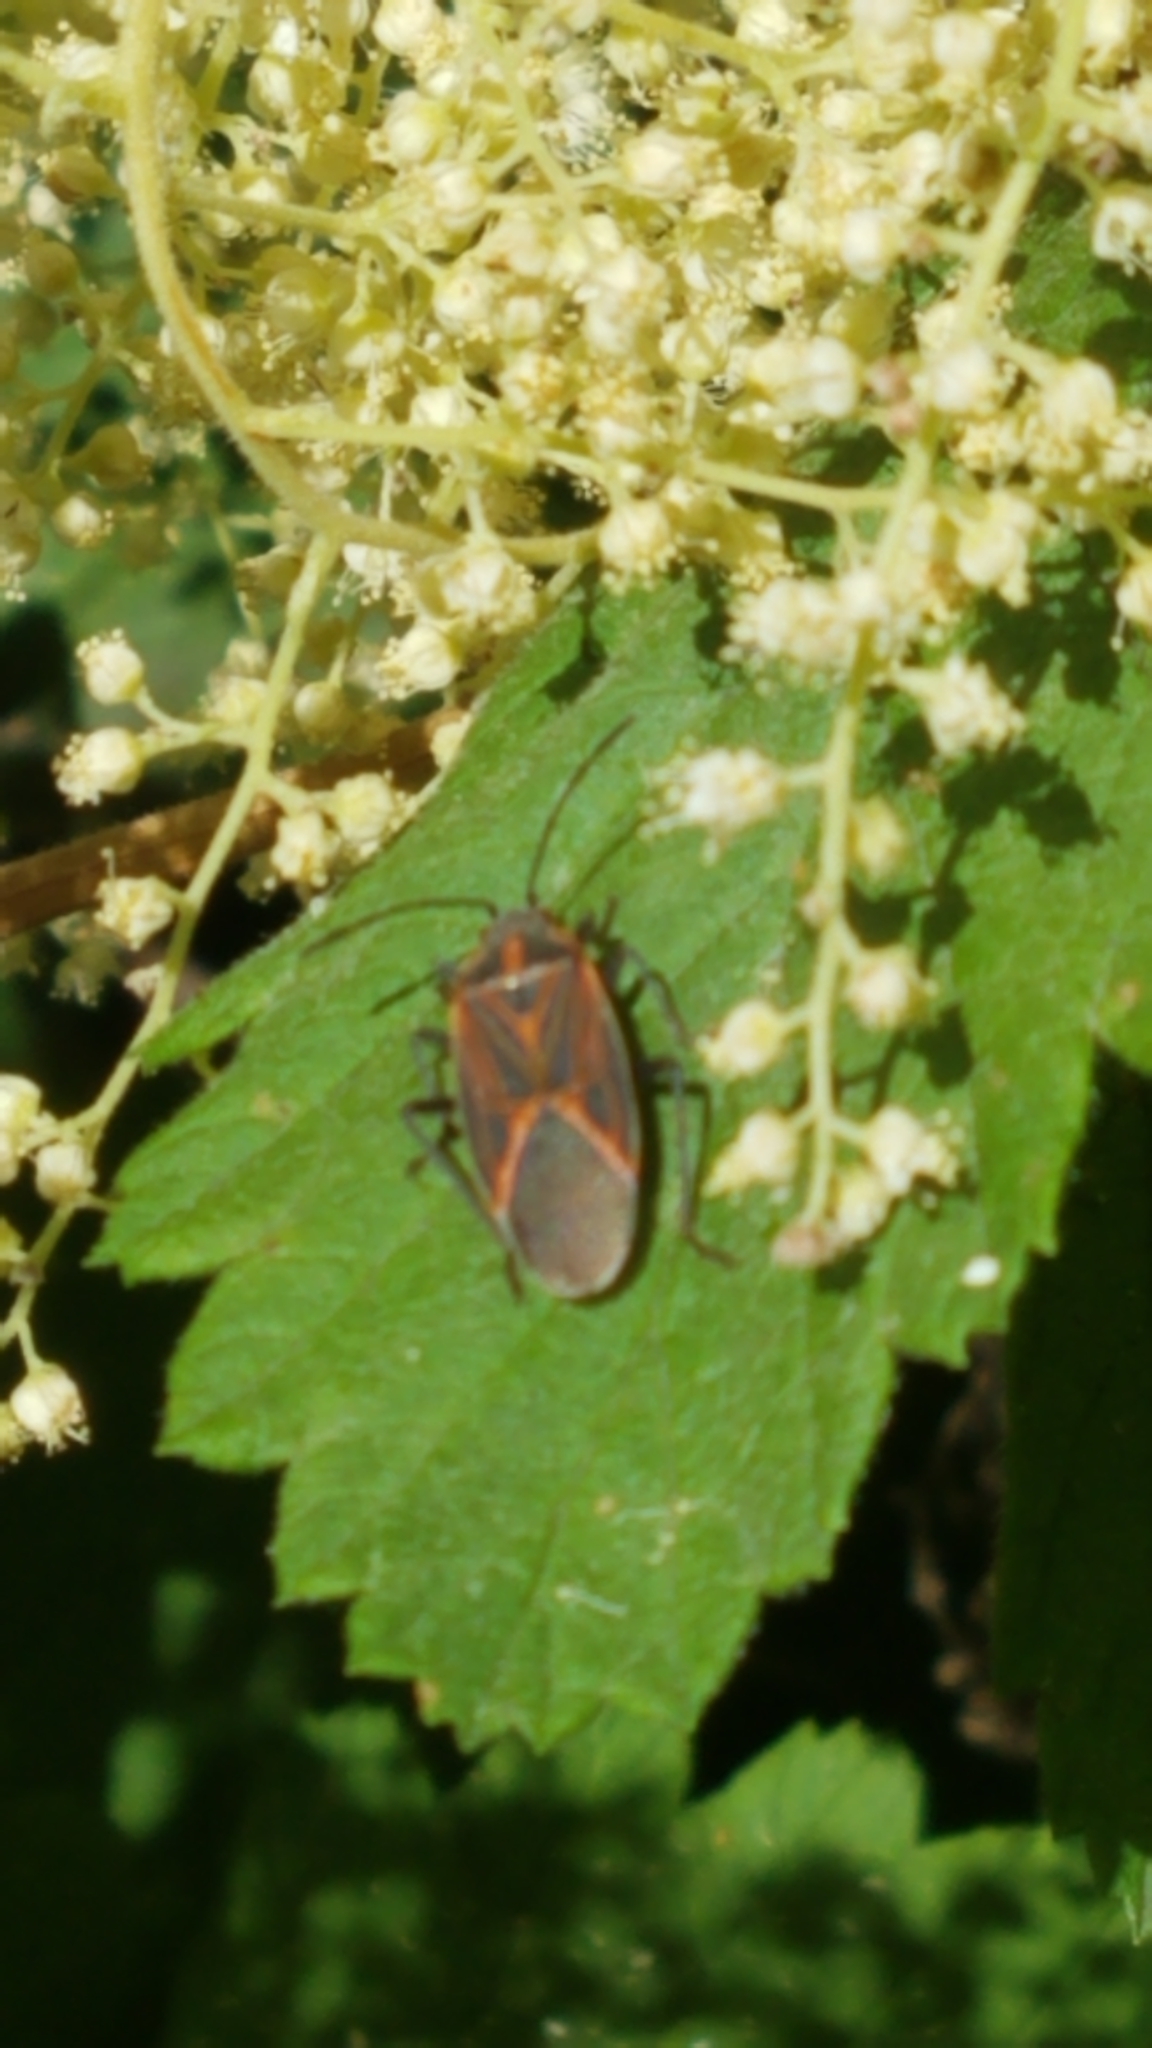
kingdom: Animalia
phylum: Arthropoda
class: Insecta
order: Hemiptera
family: Rhopalidae
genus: Boisea
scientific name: Boisea rubrolineata
